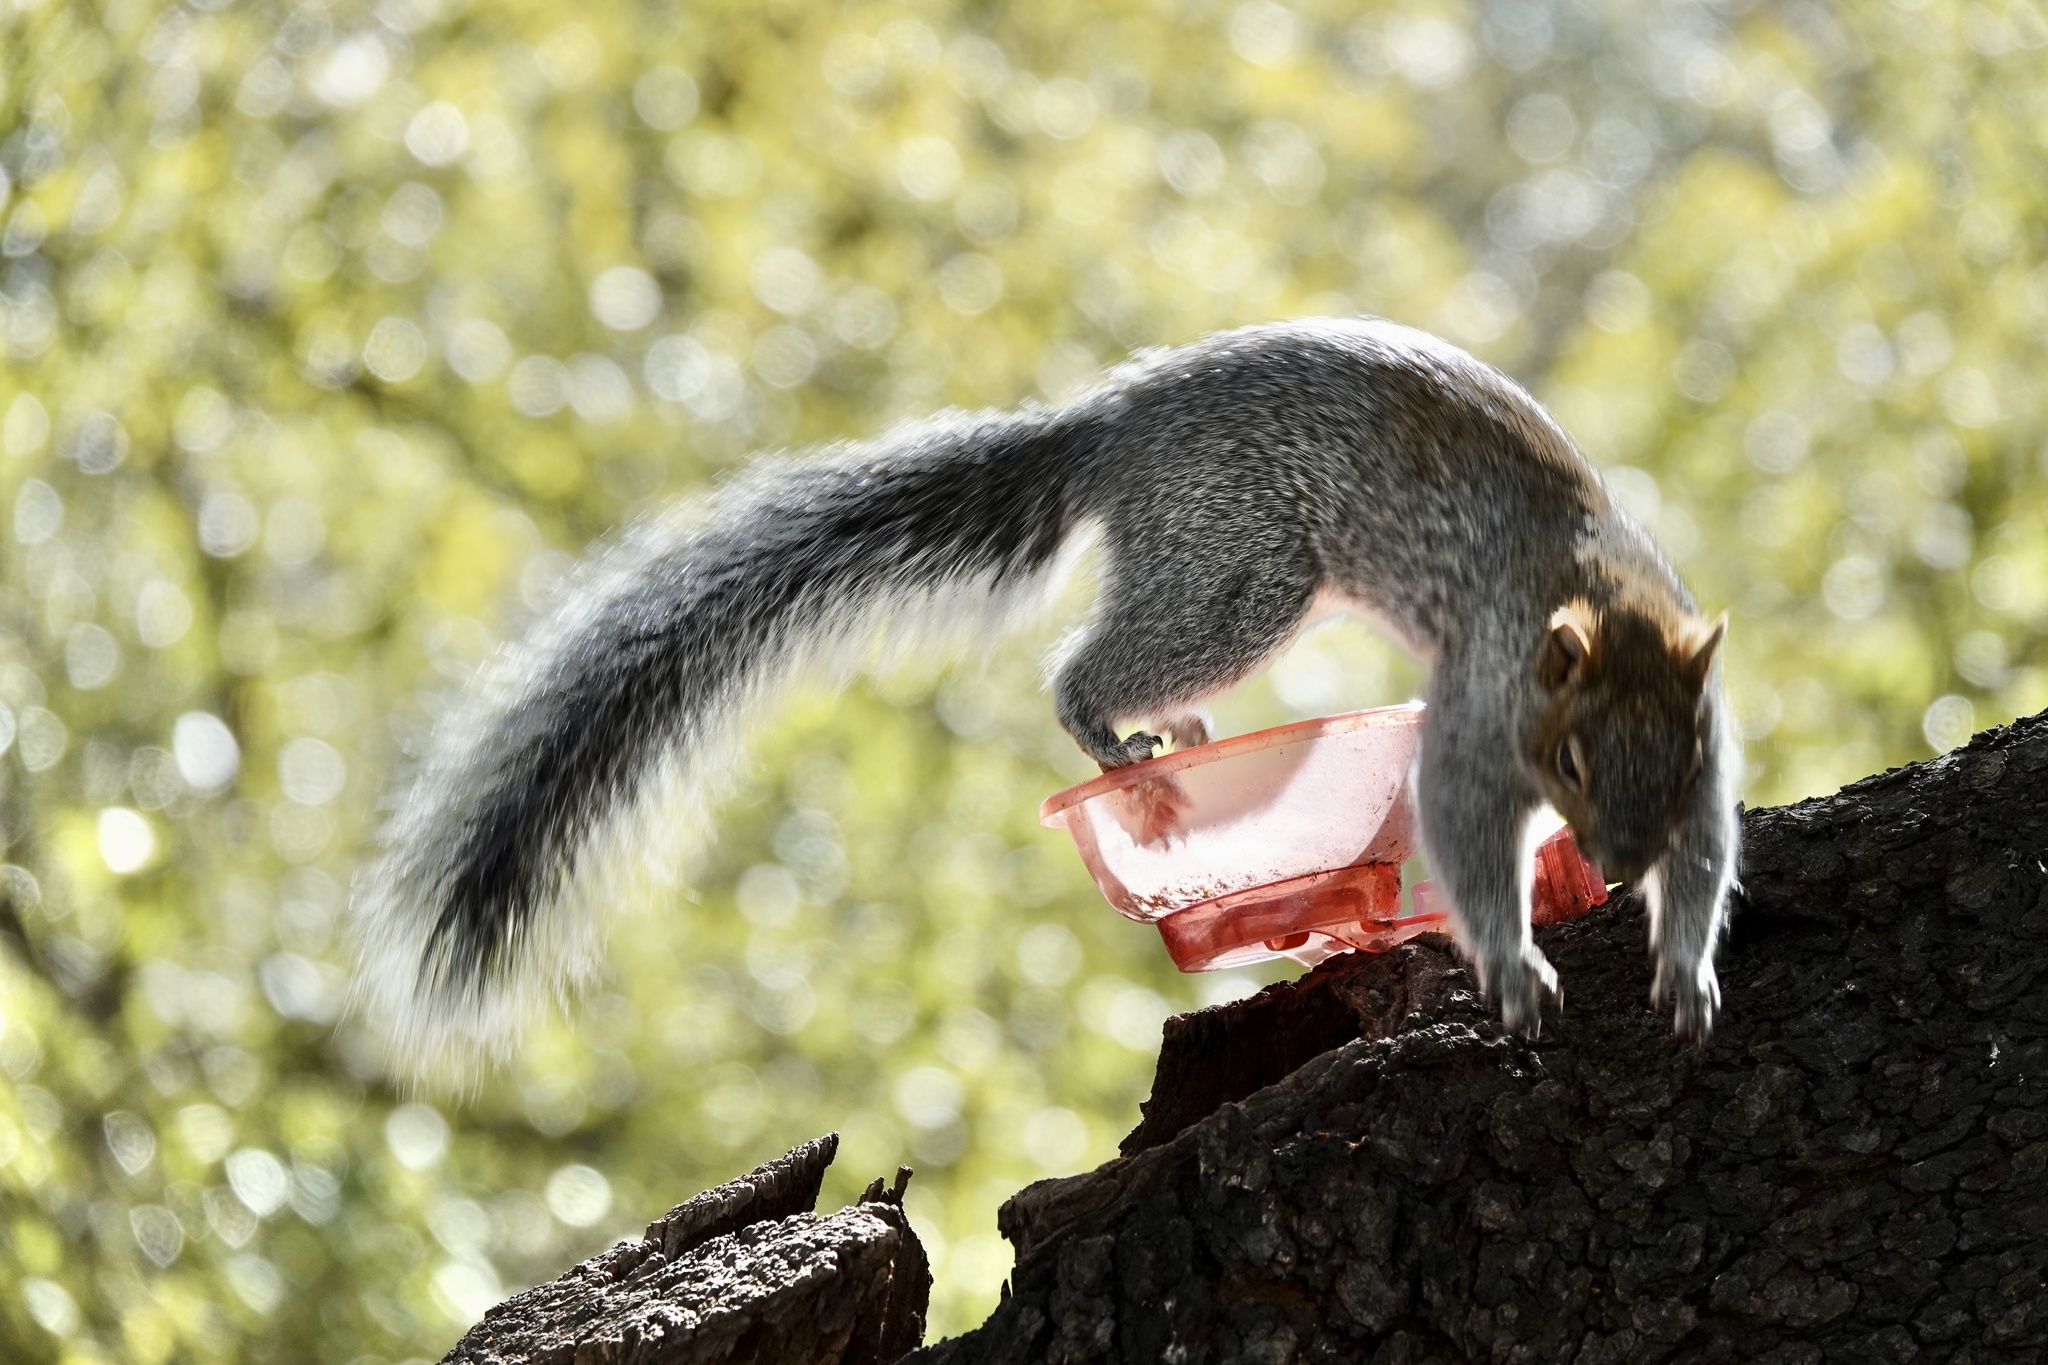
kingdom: Animalia
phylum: Chordata
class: Mammalia
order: Rodentia
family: Sciuridae
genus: Sciurus
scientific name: Sciurus arizonensis
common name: Arizona gray squirrel
